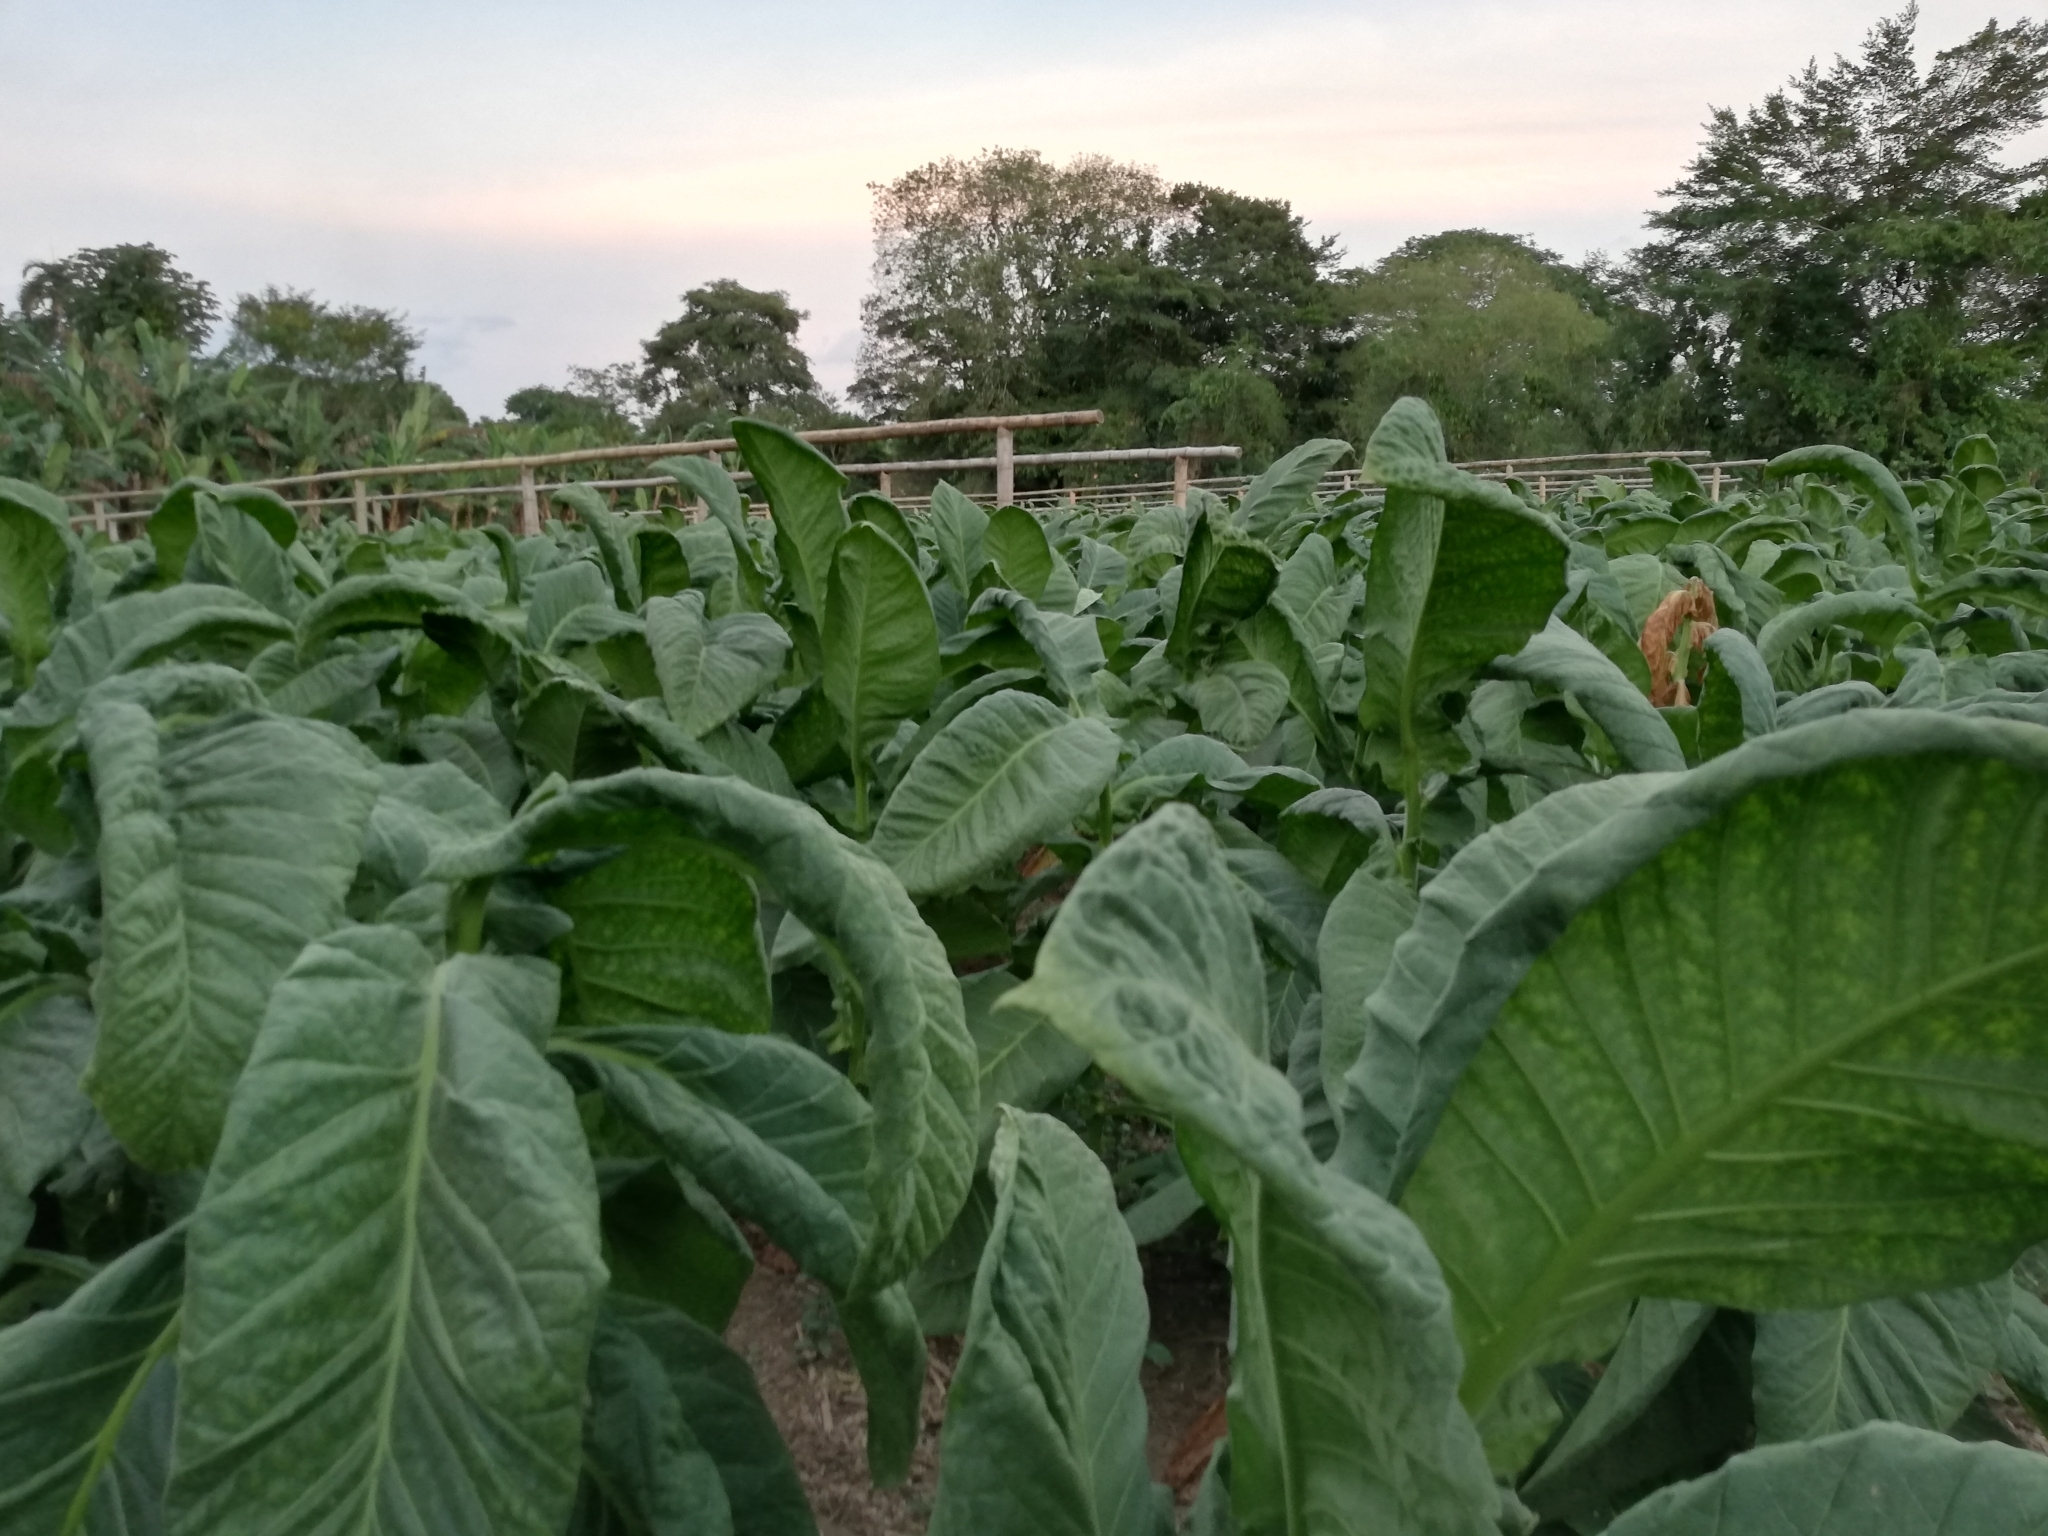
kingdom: Plantae
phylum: Tracheophyta
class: Magnoliopsida
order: Solanales
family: Solanaceae
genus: Nicotiana
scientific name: Nicotiana tabacum
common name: Tobacco
